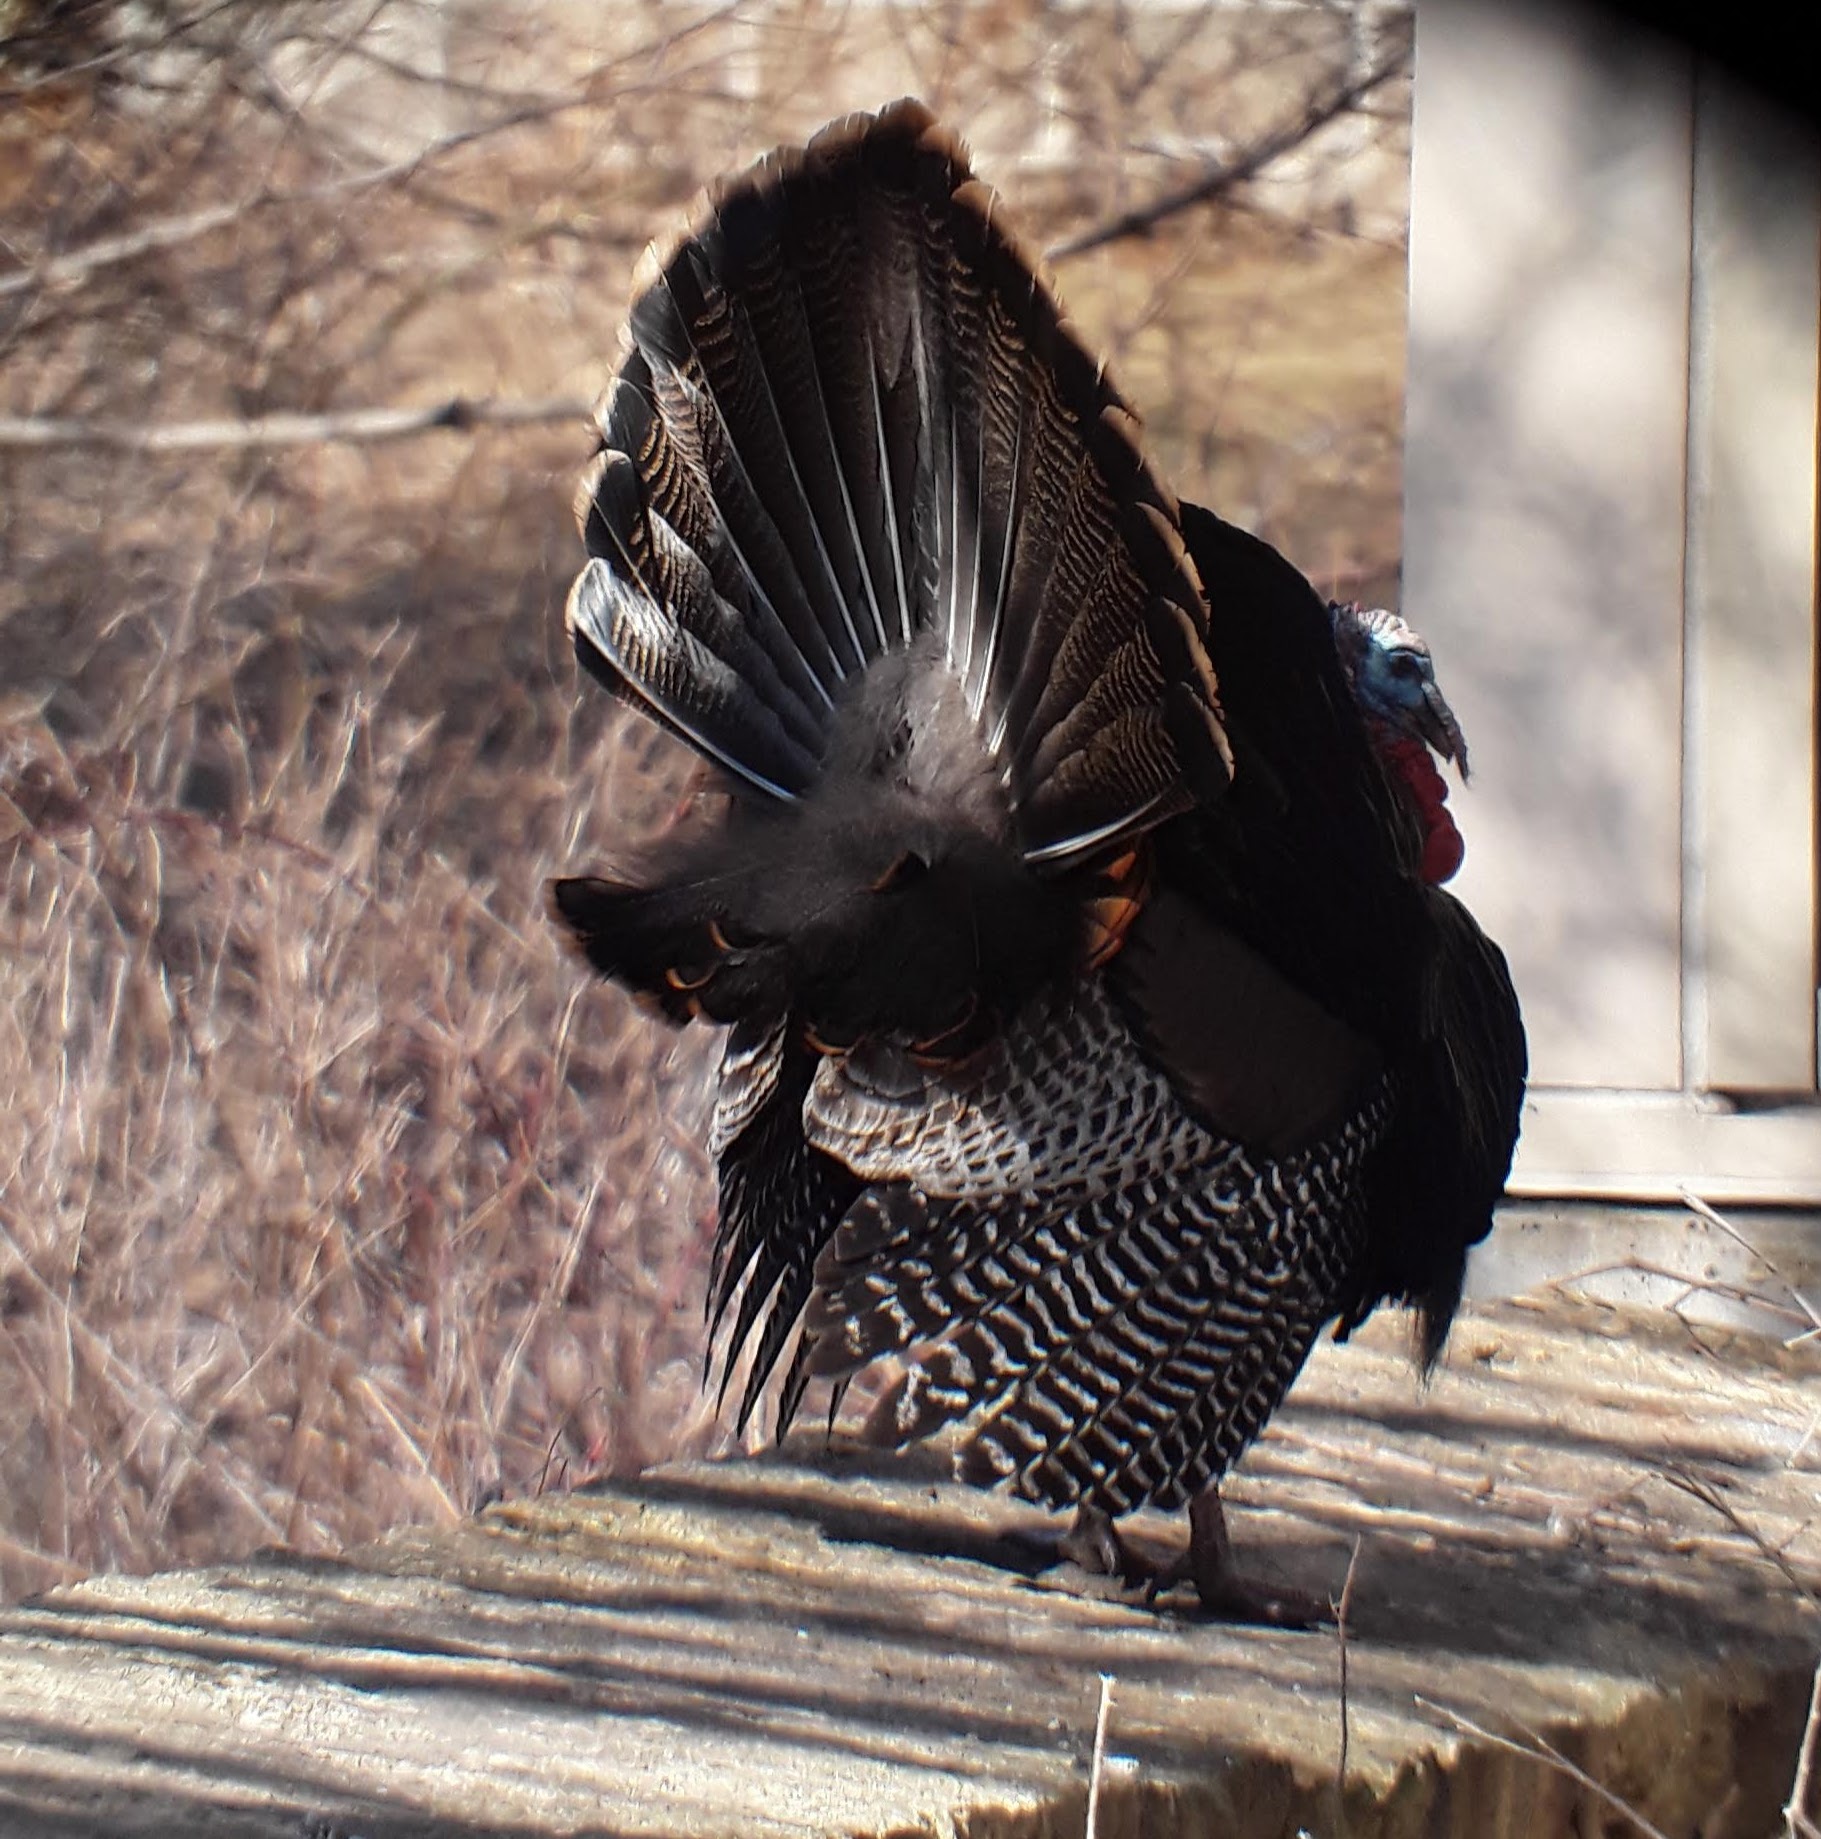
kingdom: Animalia
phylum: Chordata
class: Aves
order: Galliformes
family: Phasianidae
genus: Meleagris
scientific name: Meleagris gallopavo
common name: Wild turkey
